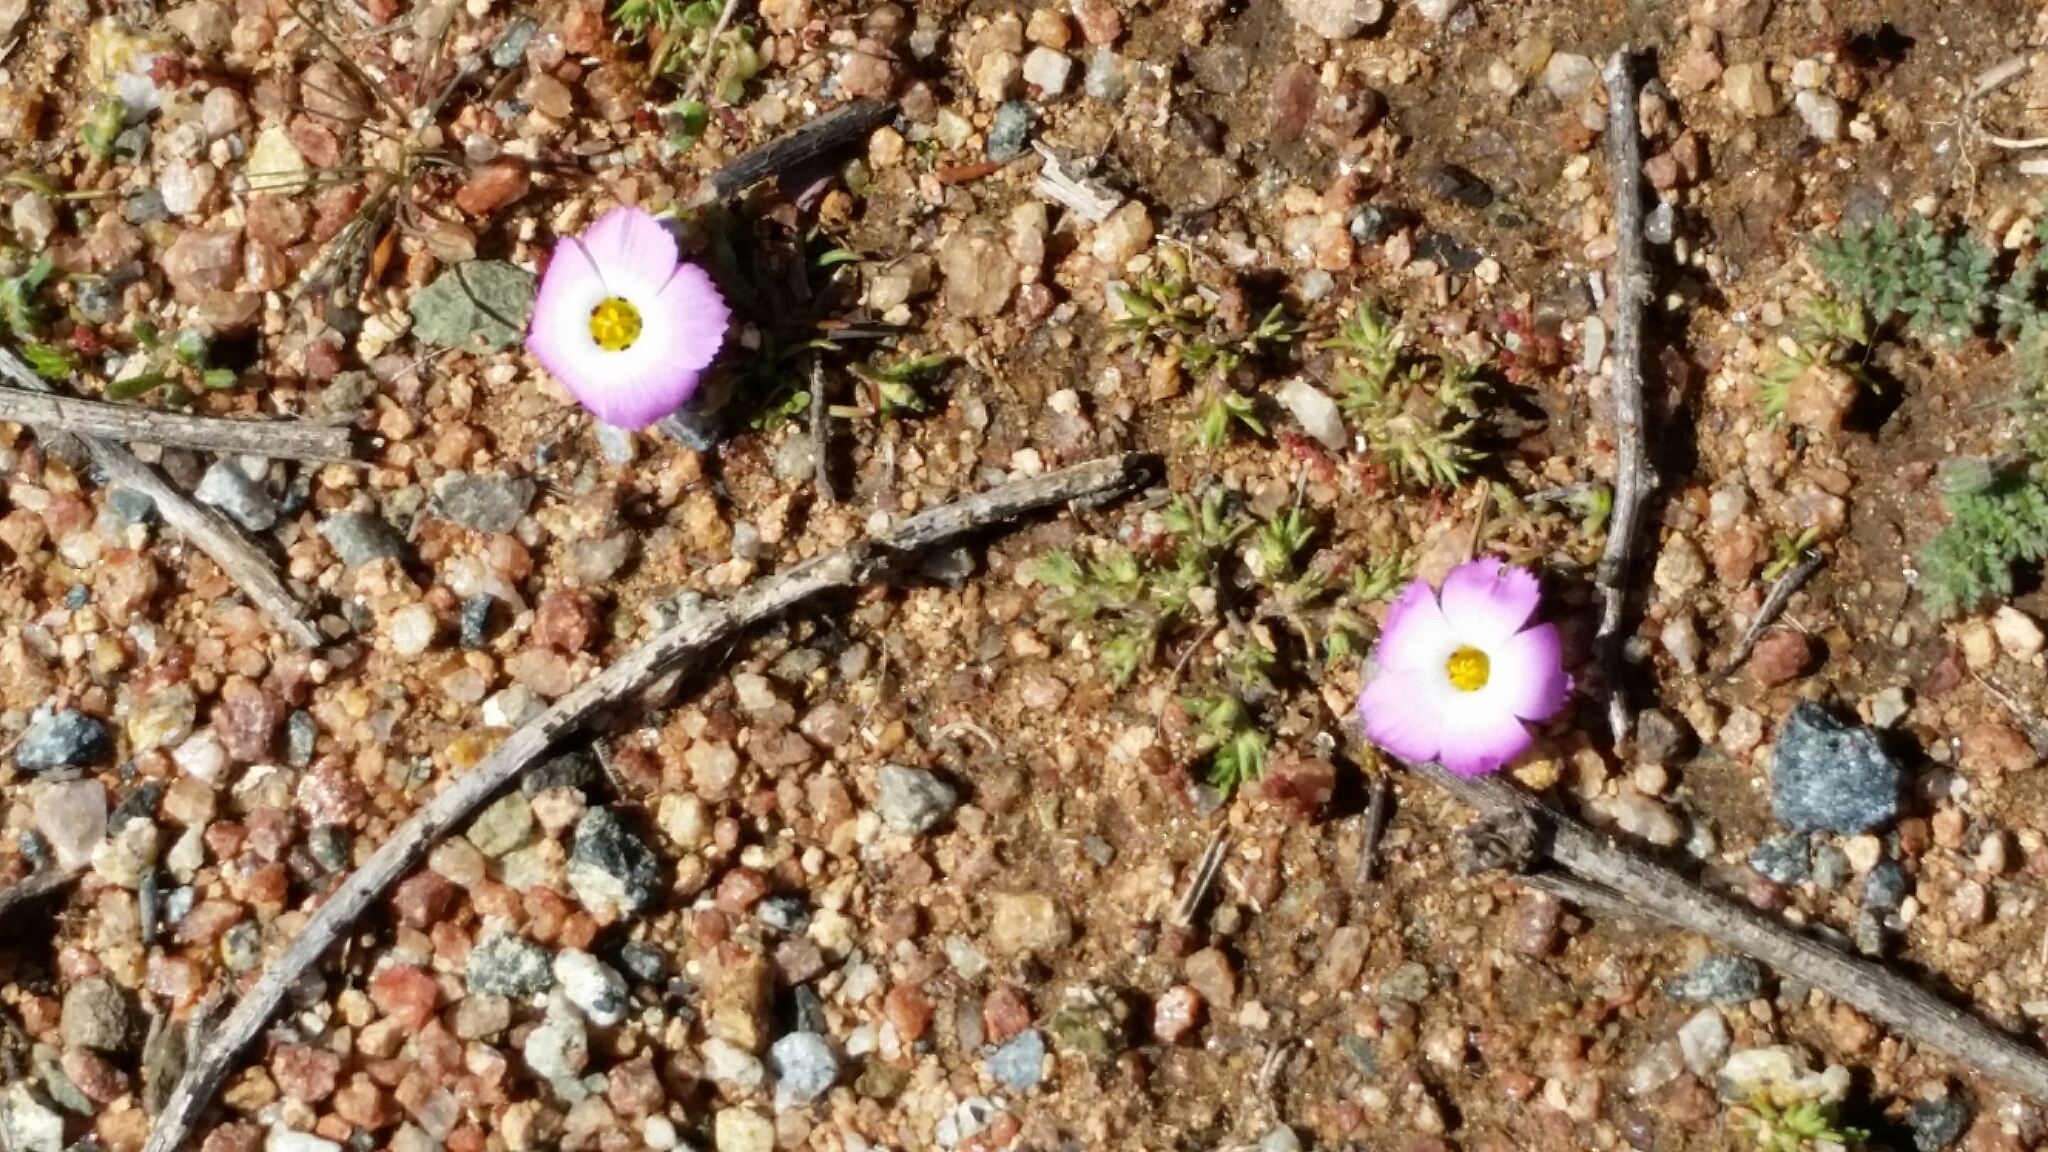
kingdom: Plantae
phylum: Tracheophyta
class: Magnoliopsida
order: Ericales
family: Polemoniaceae
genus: Linanthus
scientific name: Linanthus dianthiflorus
